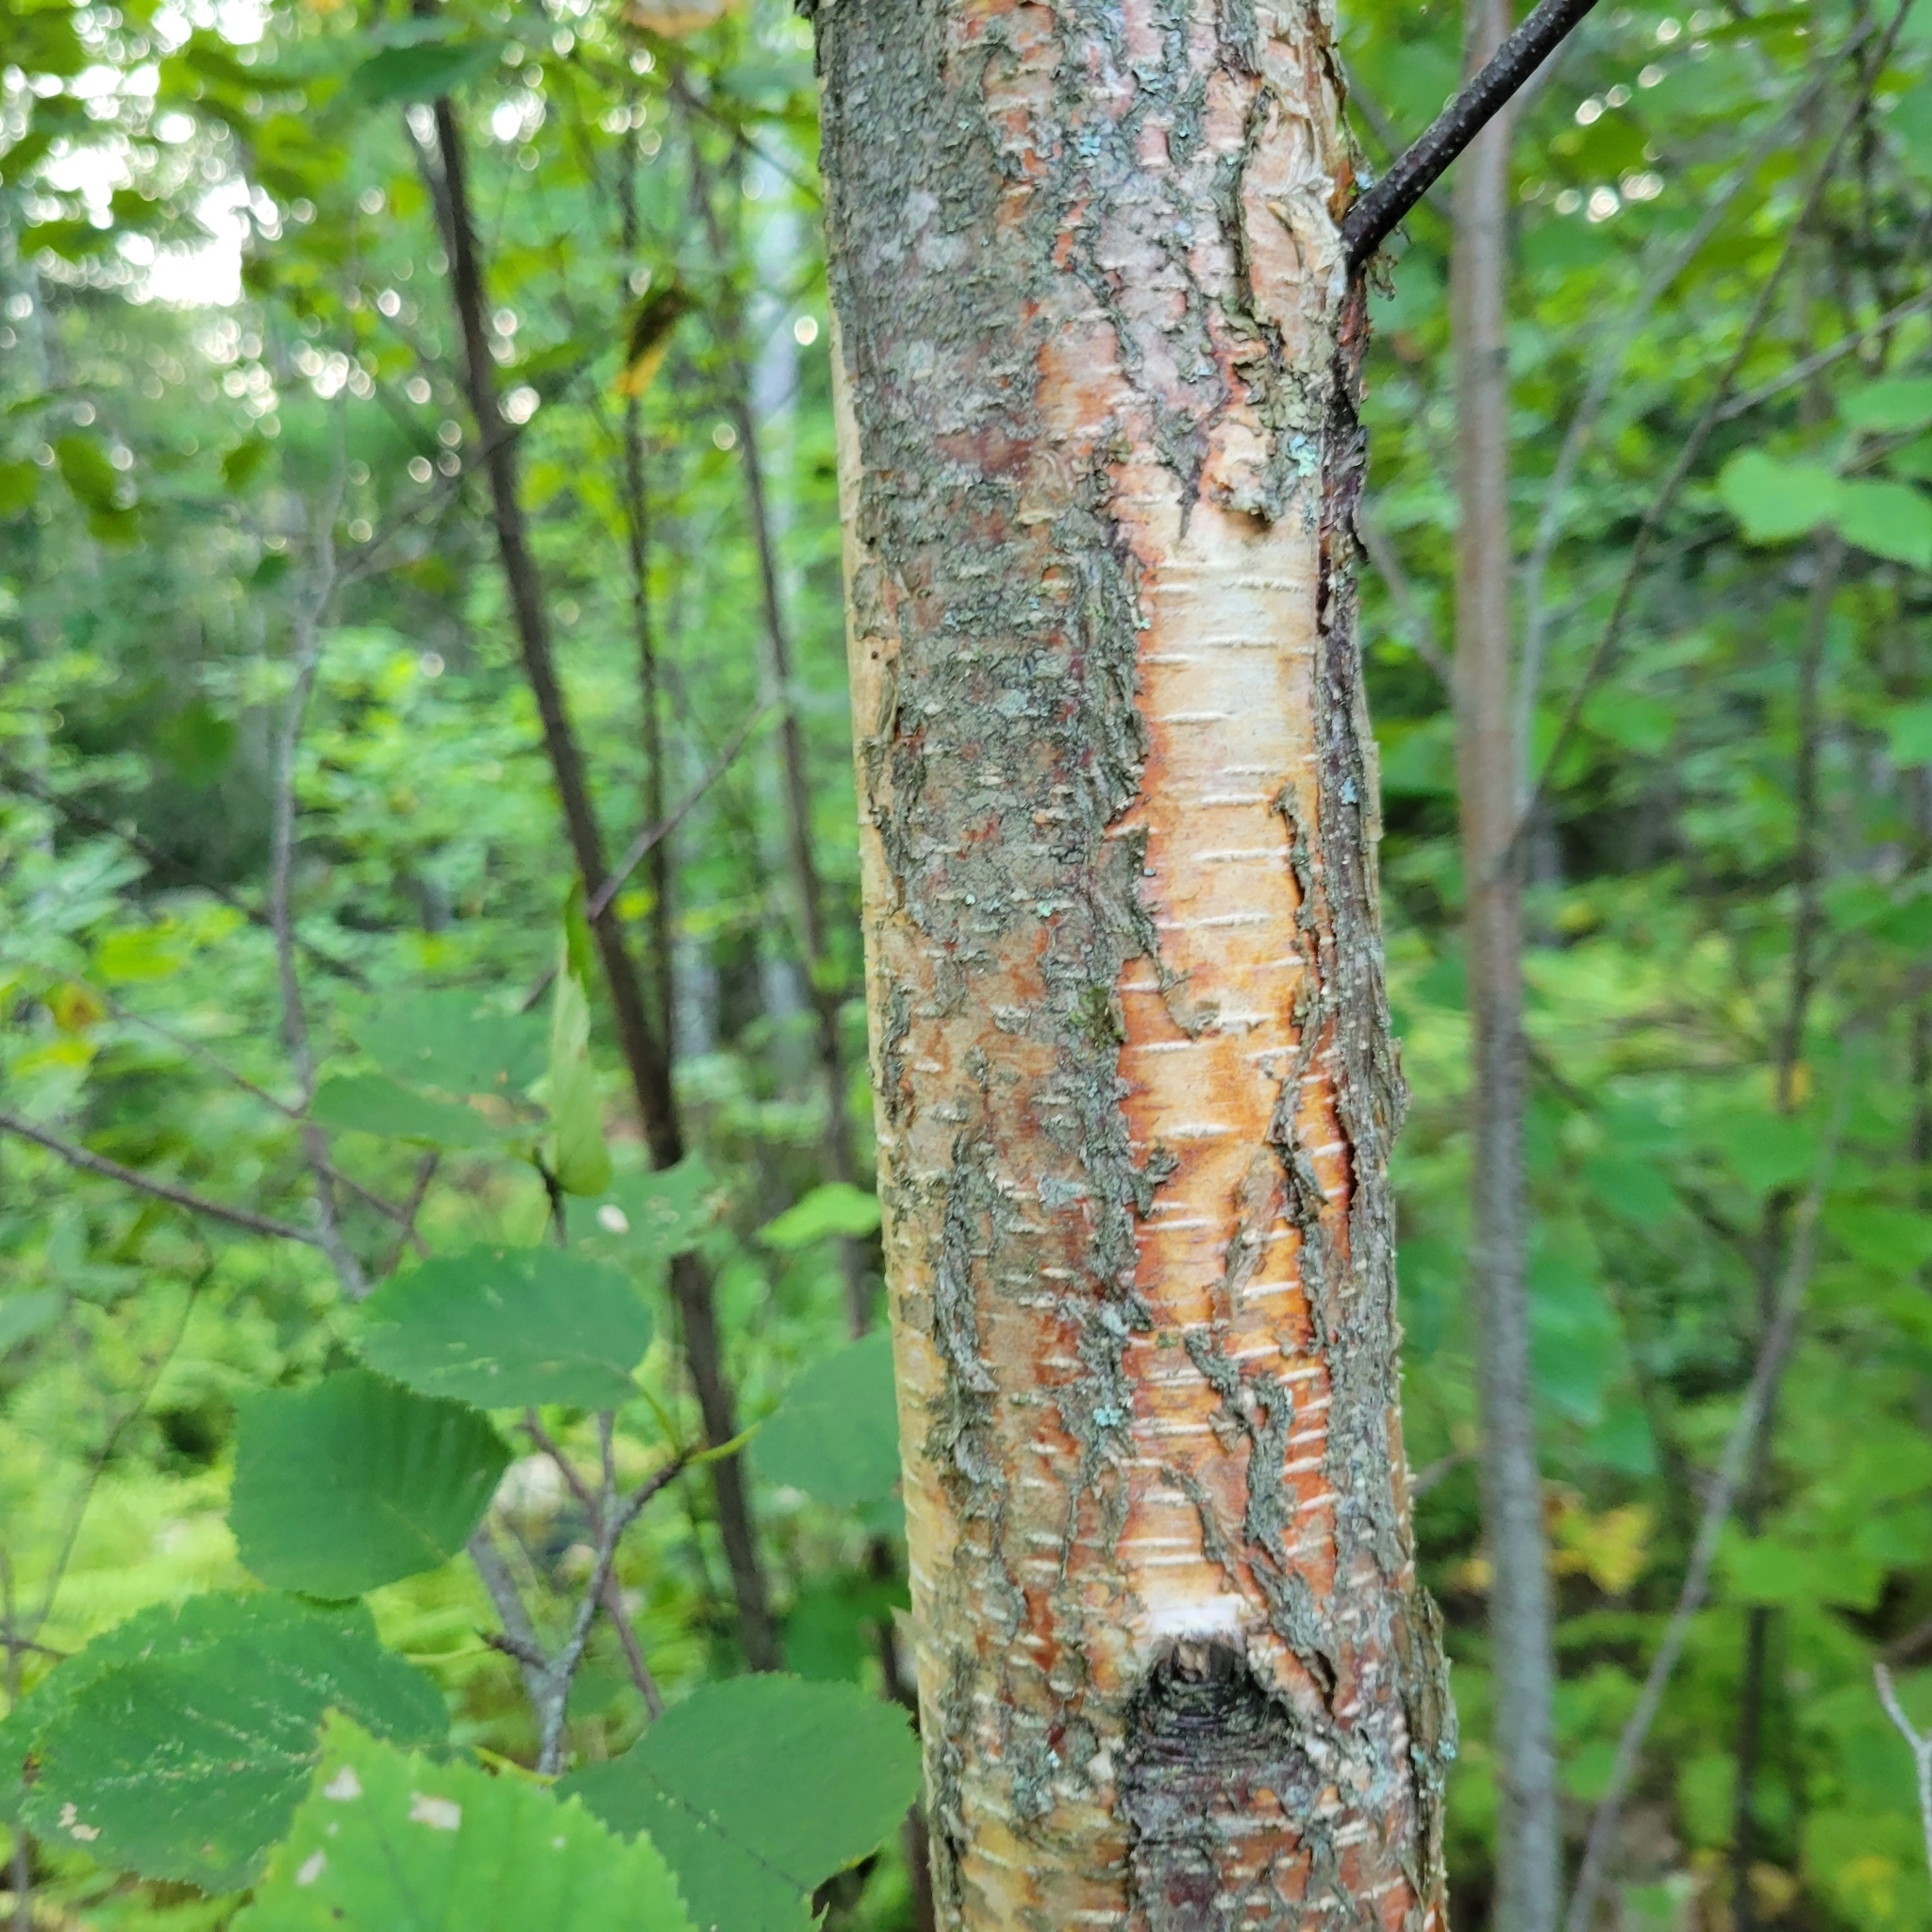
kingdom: Plantae
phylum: Tracheophyta
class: Magnoliopsida
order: Fagales
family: Betulaceae
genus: Betula
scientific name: Betula populifolia
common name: Fire birch
